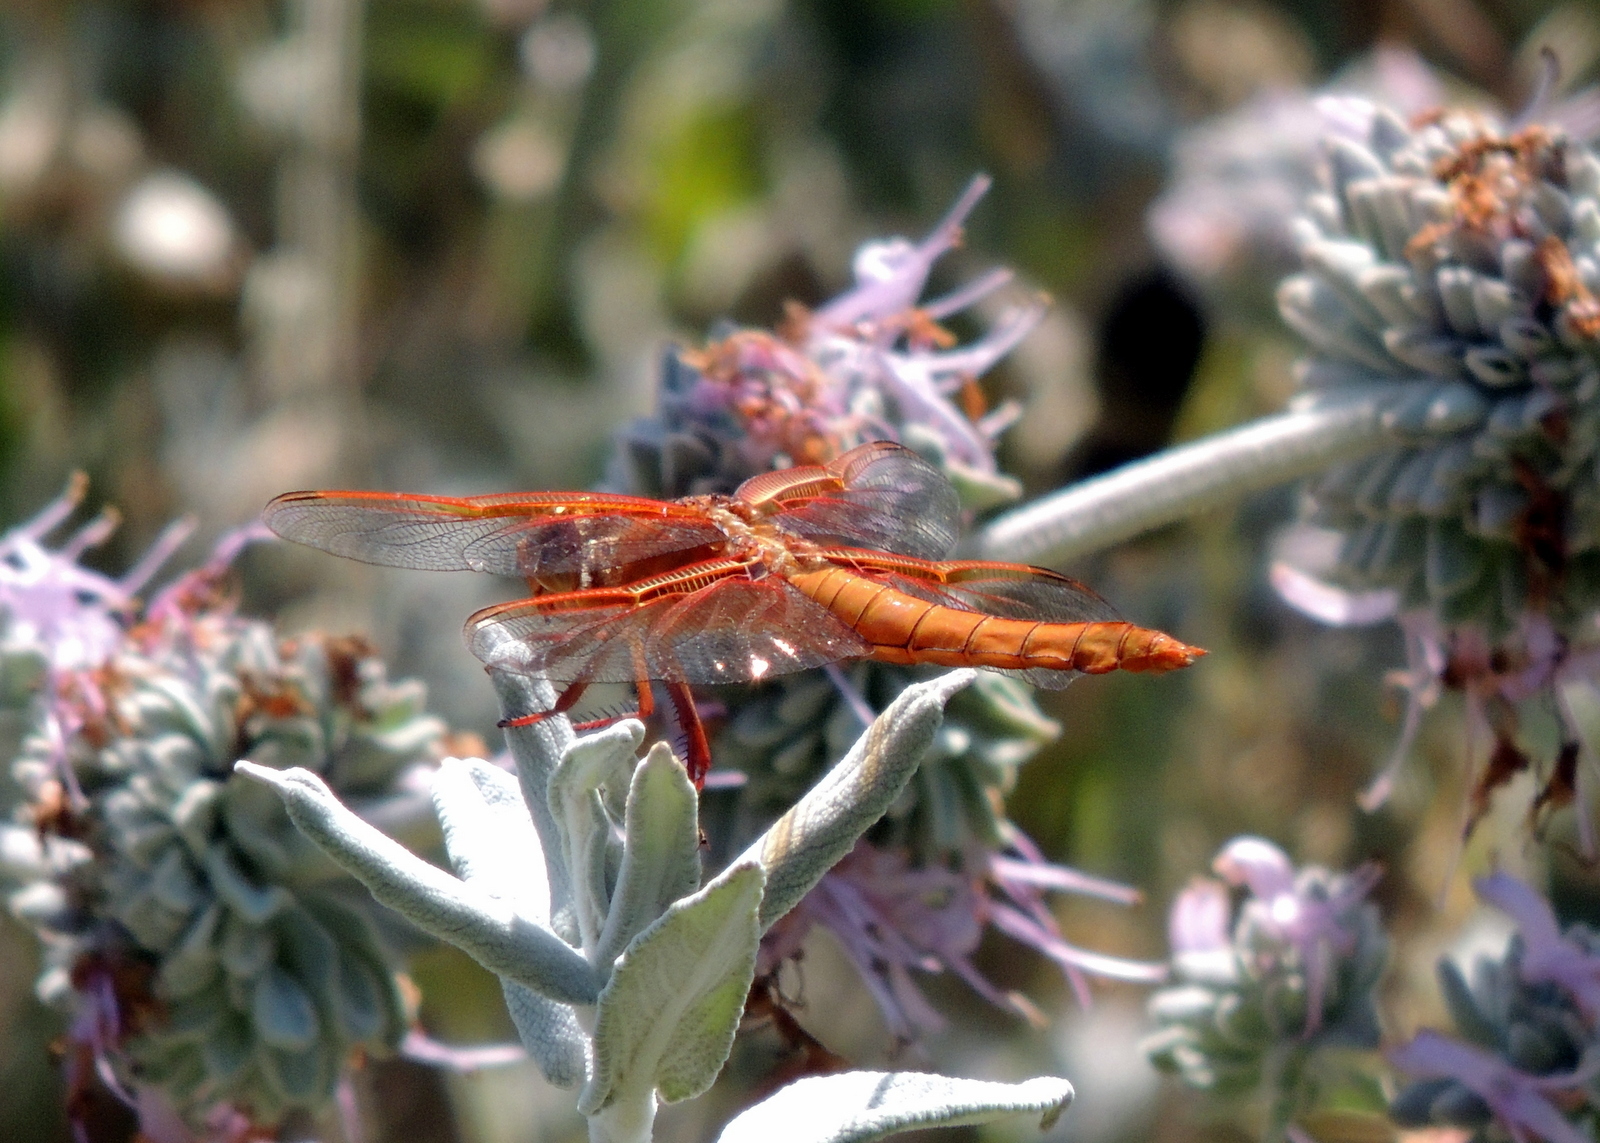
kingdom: Animalia
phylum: Arthropoda
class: Insecta
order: Odonata
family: Libellulidae
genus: Libellula
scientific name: Libellula saturata
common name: Flame skimmer
